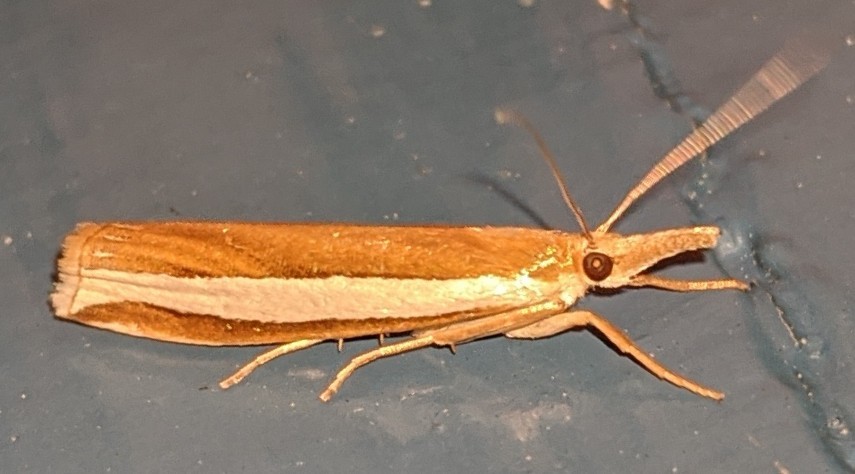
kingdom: Animalia
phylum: Arthropoda
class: Insecta
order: Lepidoptera
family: Crambidae
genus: Crambus
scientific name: Crambus unistriatellus
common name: Wide-stripe grass-veneer moth
